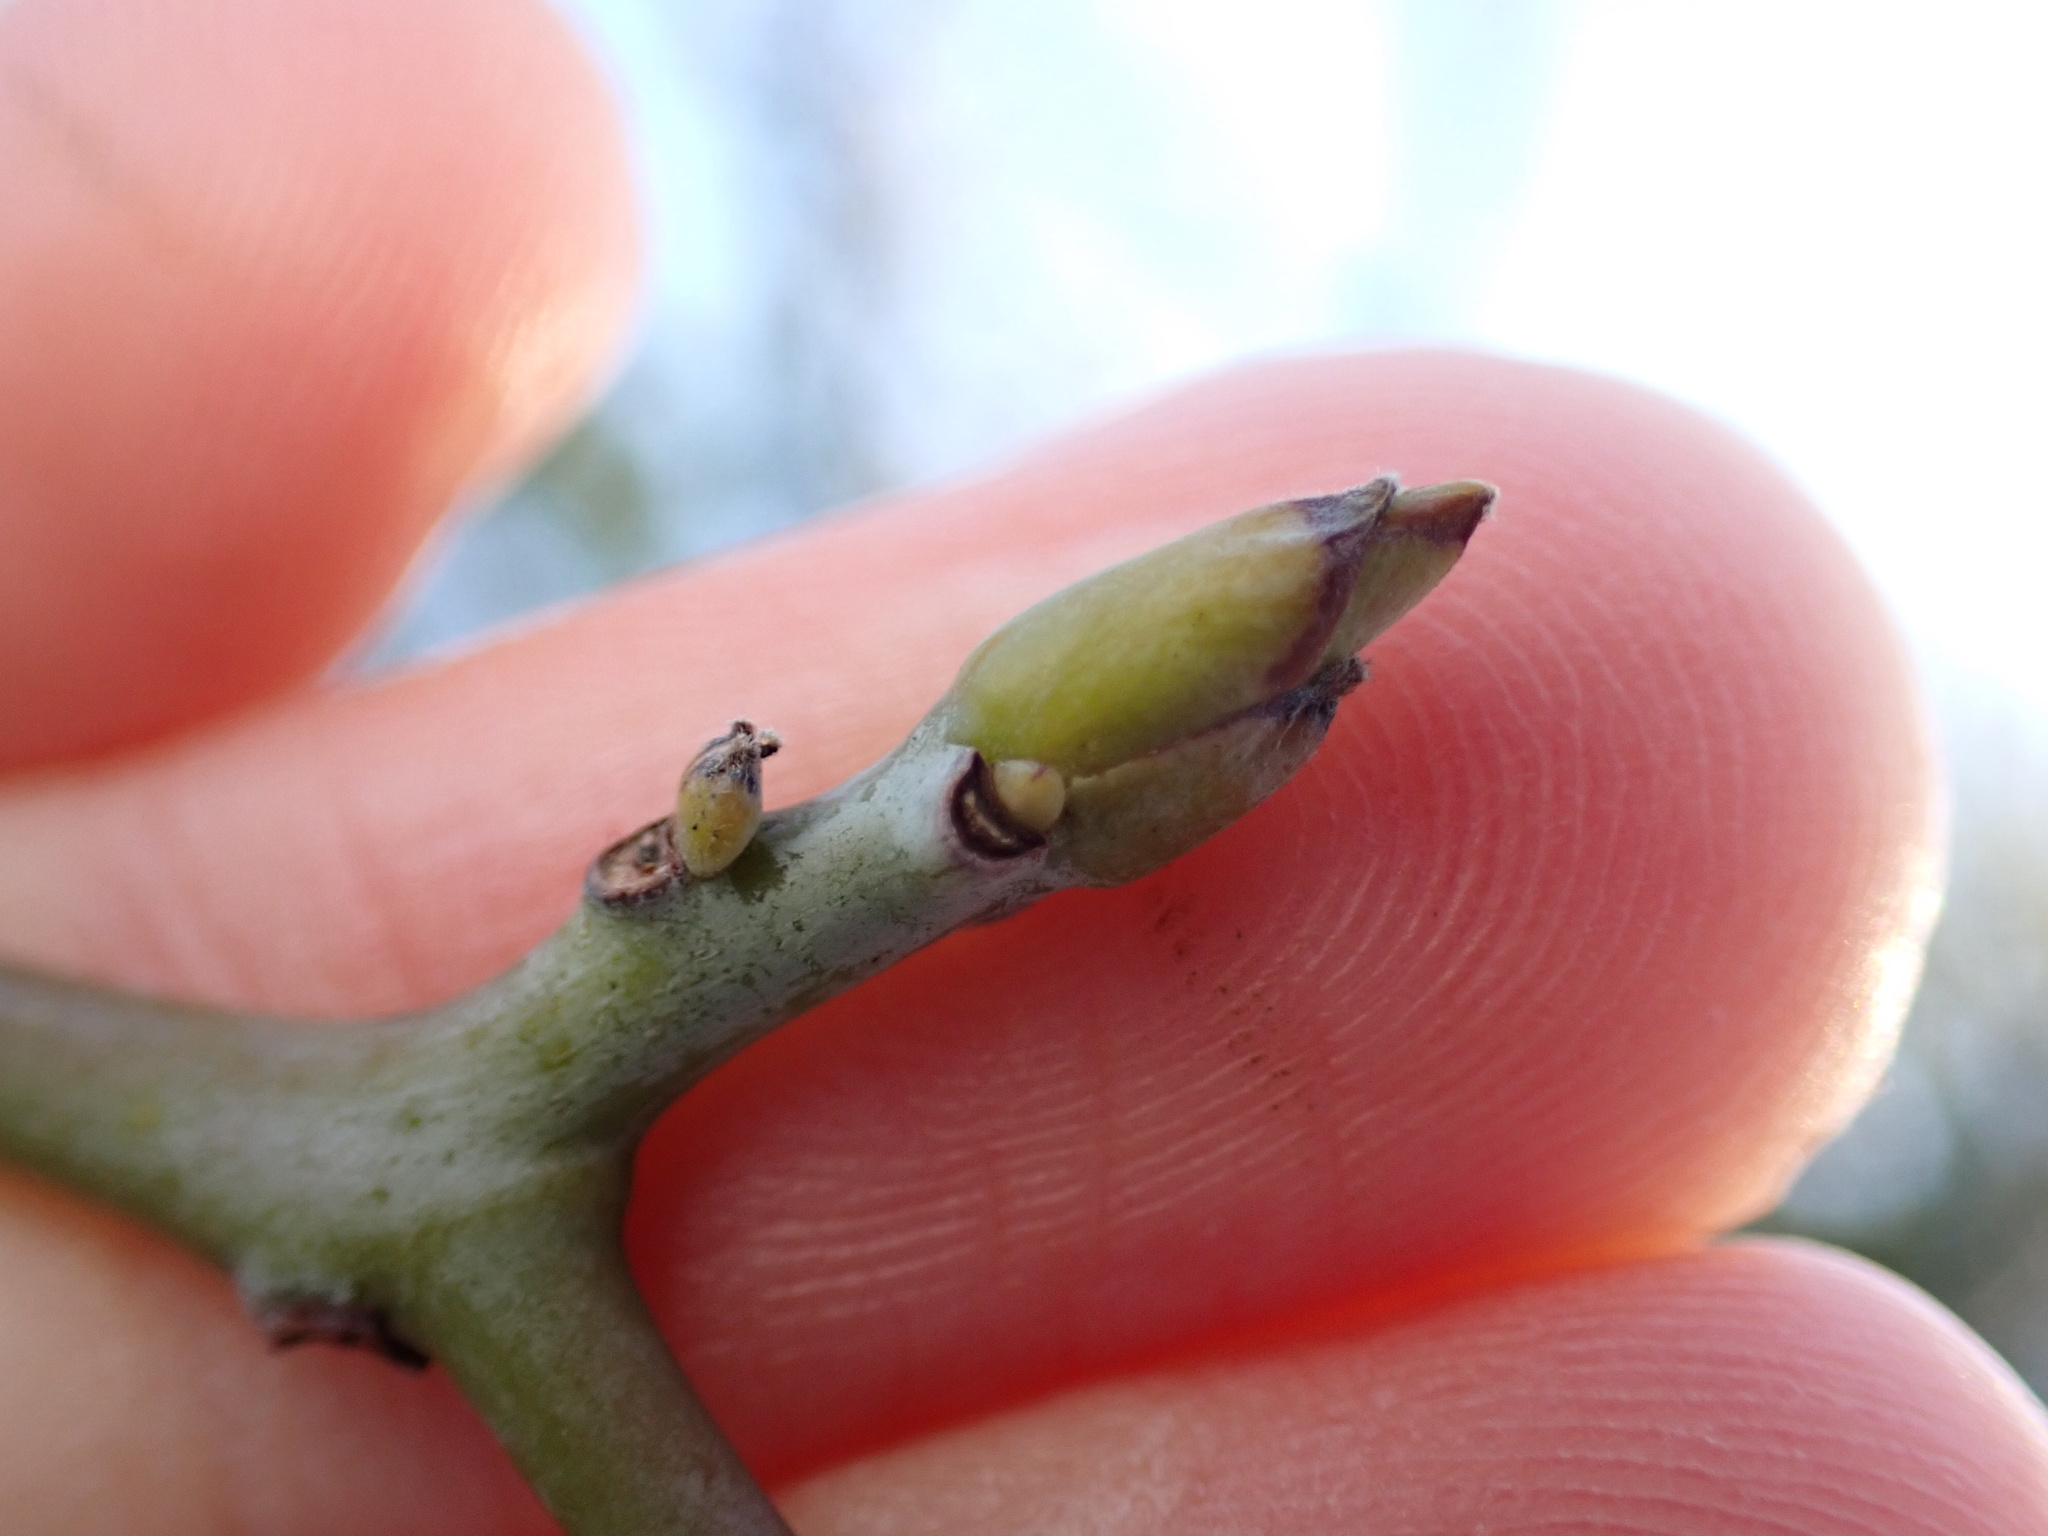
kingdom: Plantae
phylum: Tracheophyta
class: Magnoliopsida
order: Laurales
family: Lauraceae
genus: Sassafras
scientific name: Sassafras albidum
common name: Sassafras
